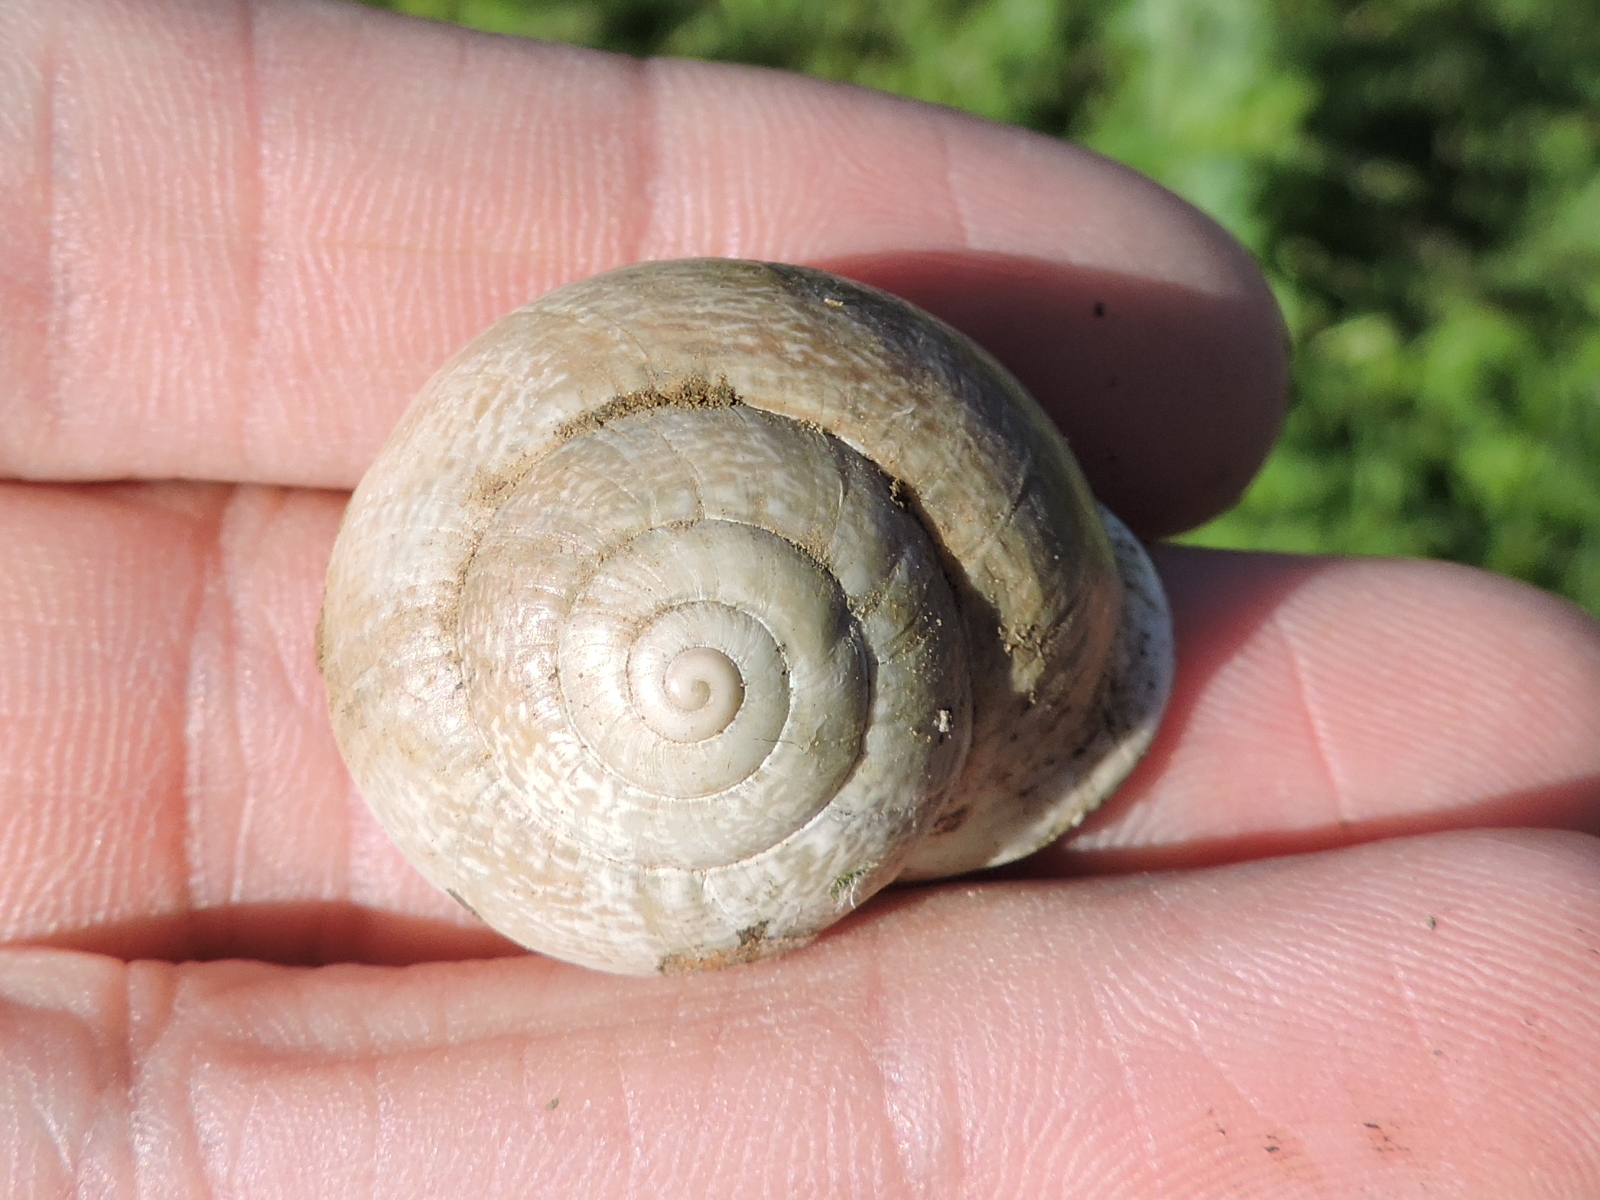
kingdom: Animalia
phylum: Mollusca
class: Gastropoda
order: Stylommatophora
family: Helicidae
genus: Otala
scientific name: Otala lactea
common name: Milk snail
